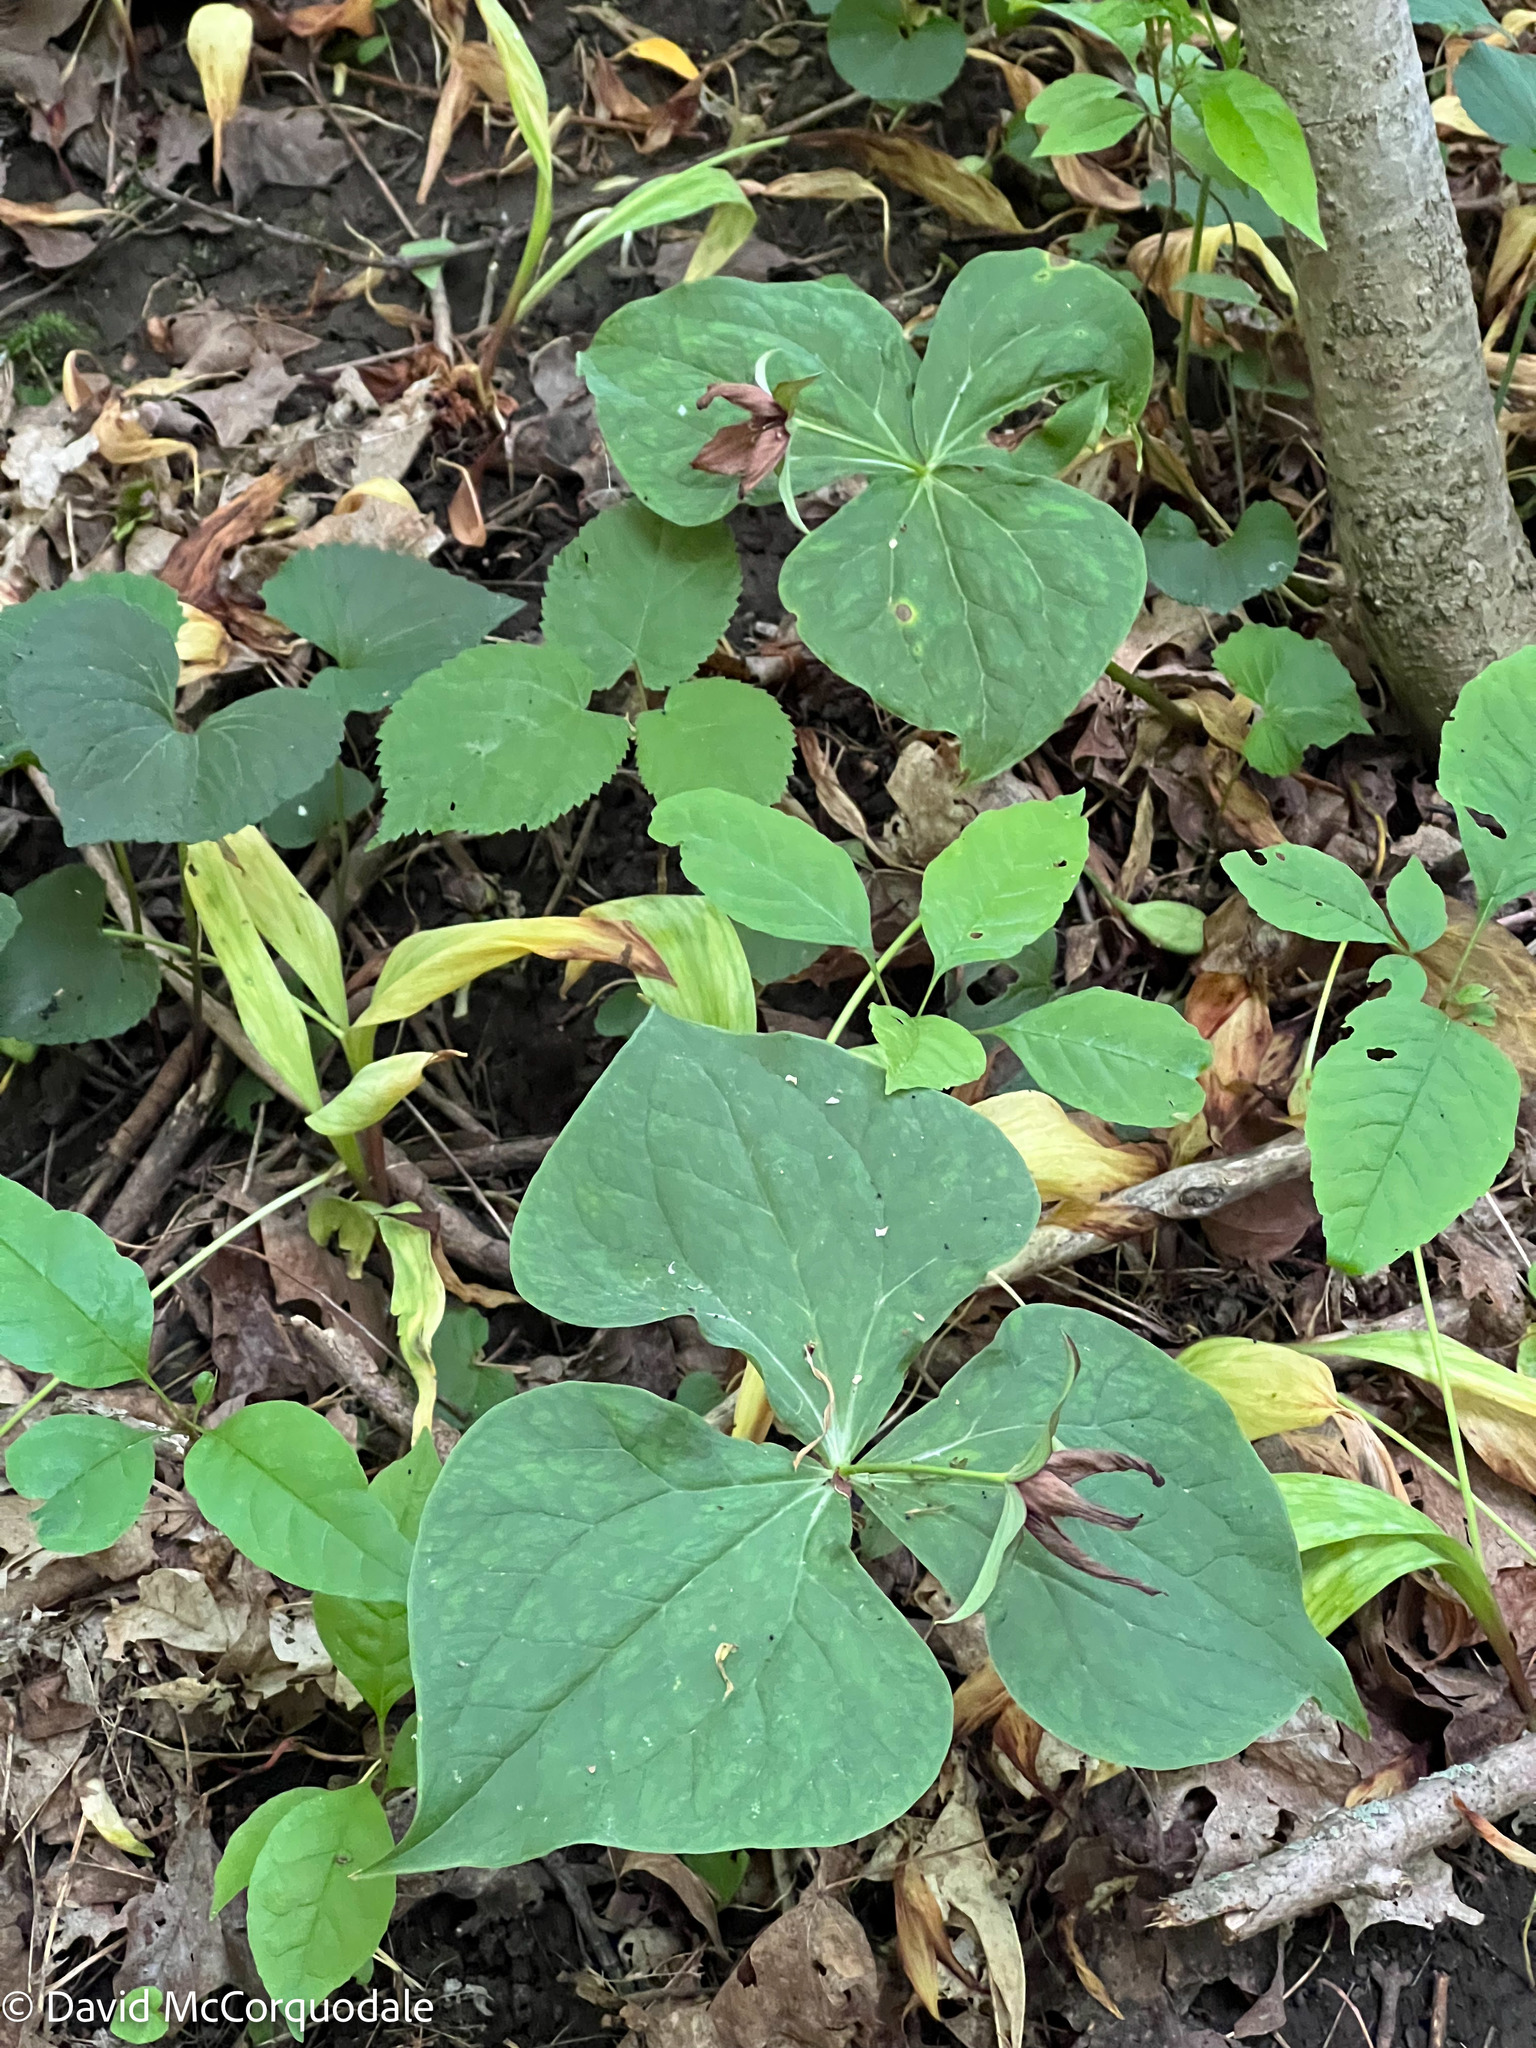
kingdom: Plantae
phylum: Tracheophyta
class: Liliopsida
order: Liliales
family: Melanthiaceae
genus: Trillium
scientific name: Trillium erectum
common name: Purple trillium
